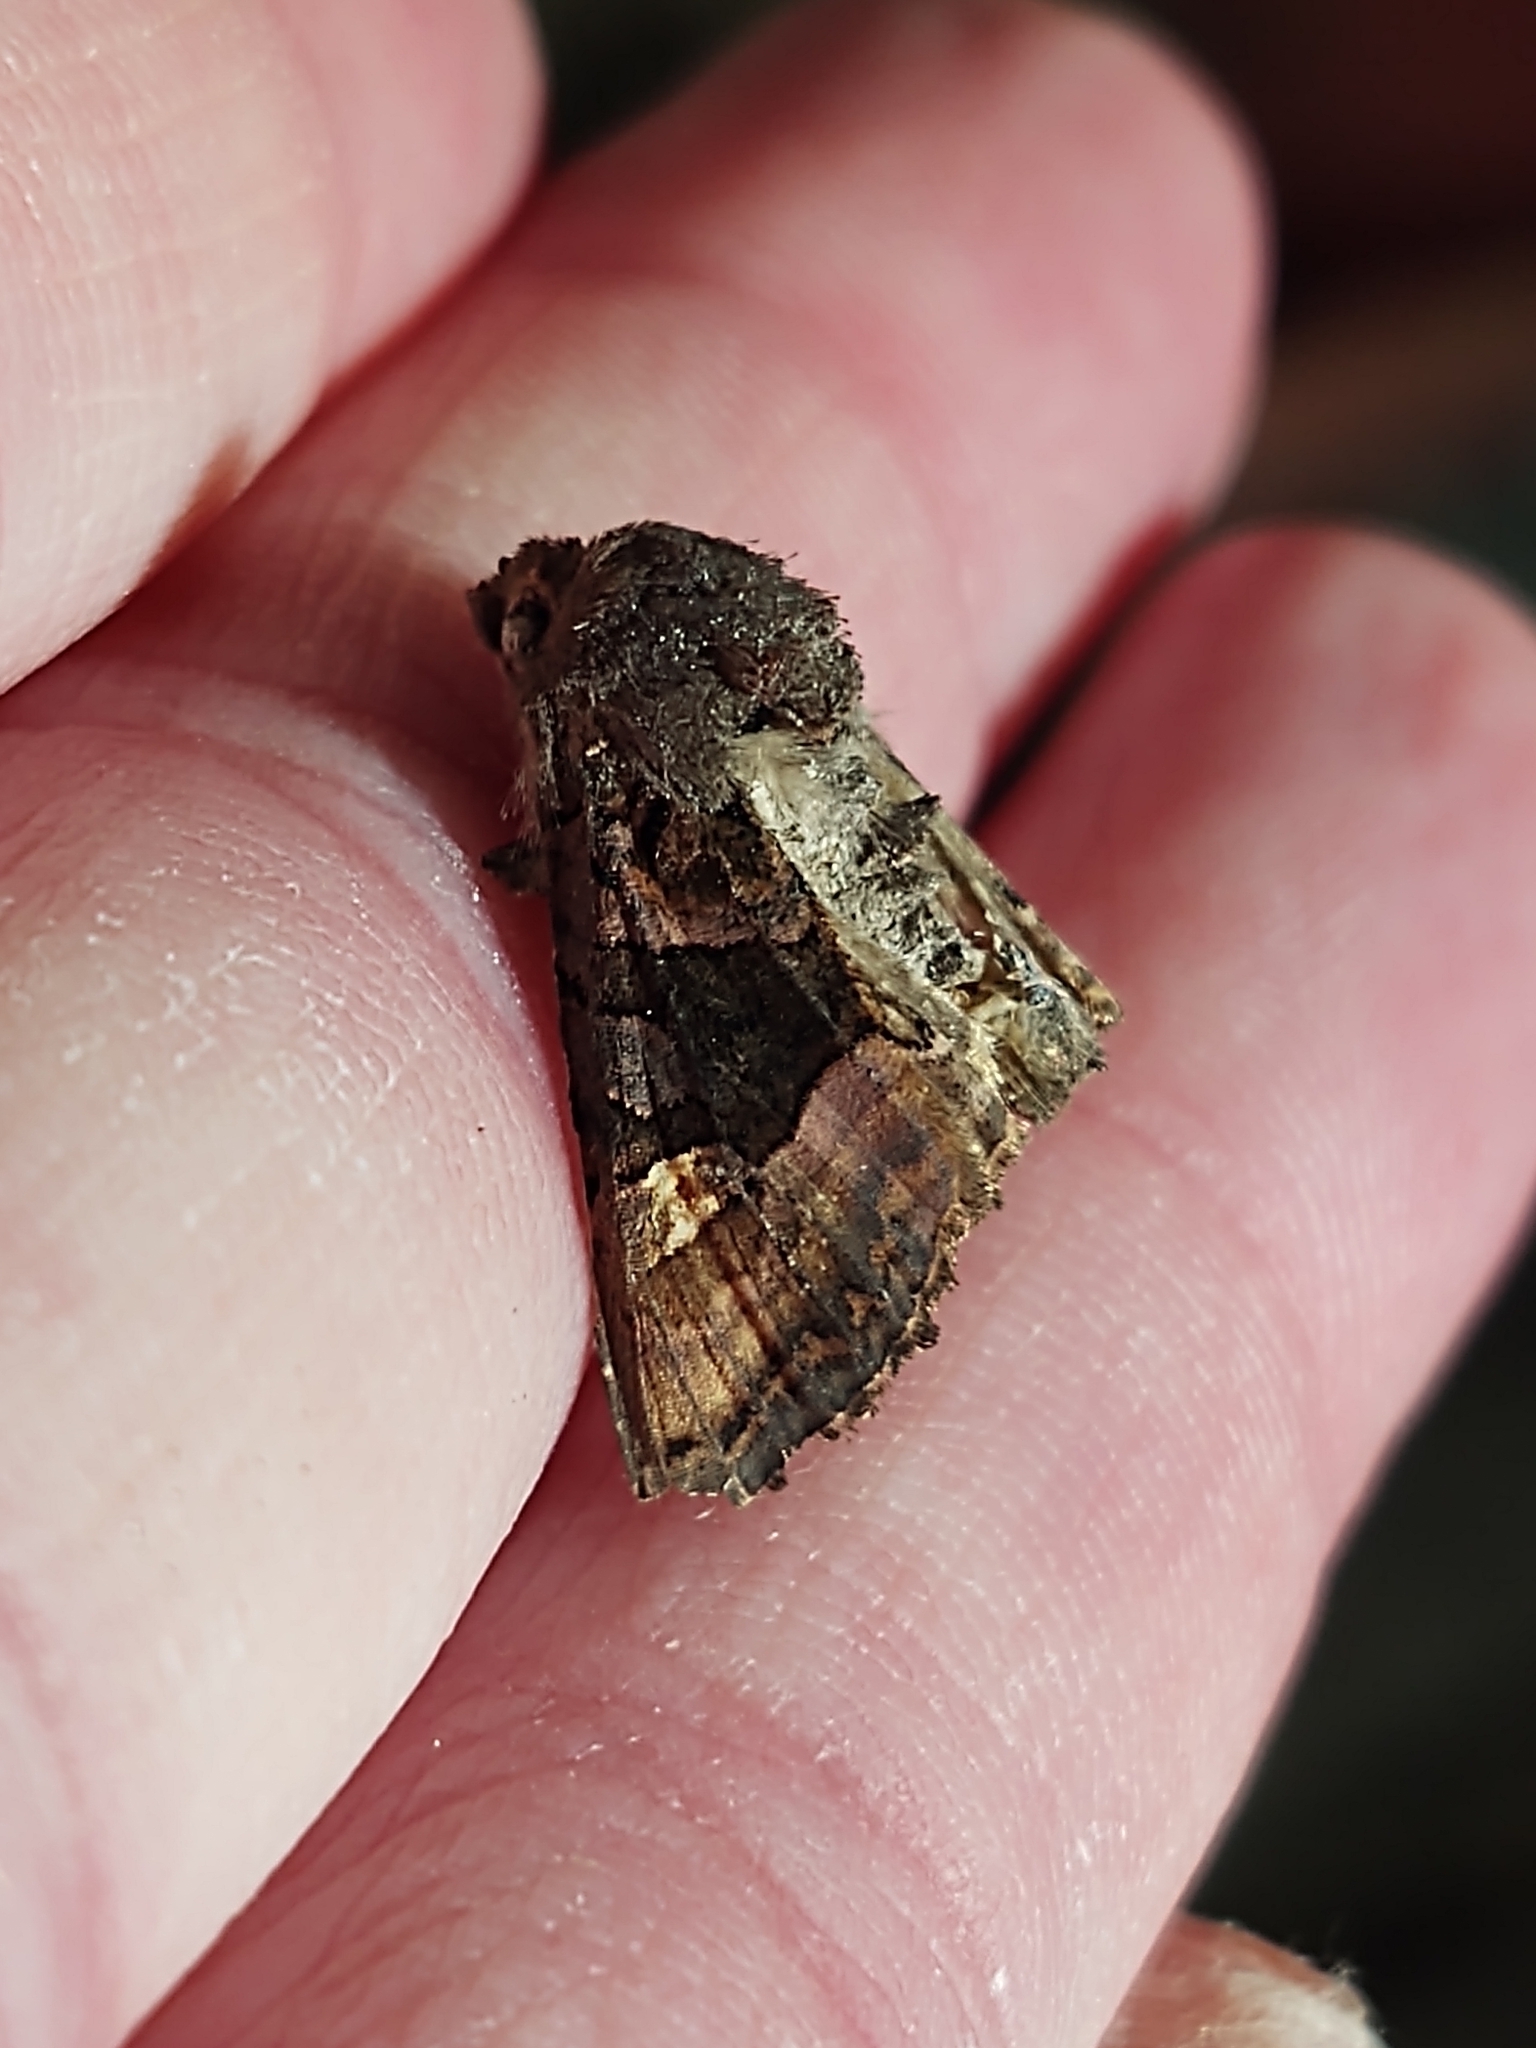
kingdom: Animalia
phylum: Arthropoda
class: Insecta
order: Lepidoptera
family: Noctuidae
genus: Euplexia
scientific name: Euplexia lucipara
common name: Small angle shades
